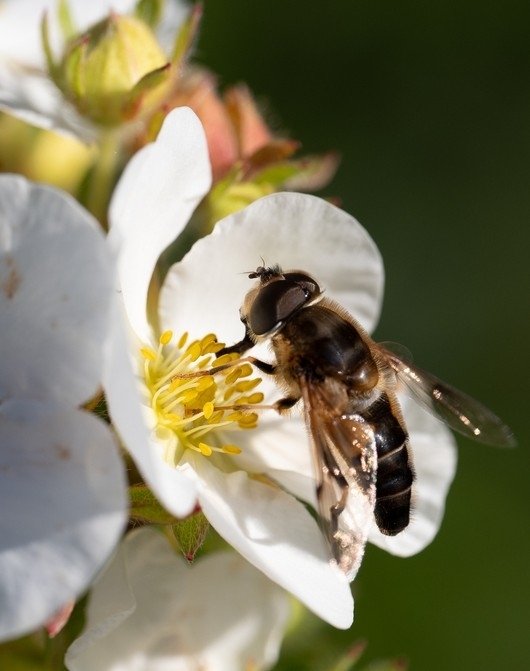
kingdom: Animalia
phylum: Arthropoda
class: Insecta
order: Diptera
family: Syrphidae
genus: Eristalis
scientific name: Eristalis pertinax
